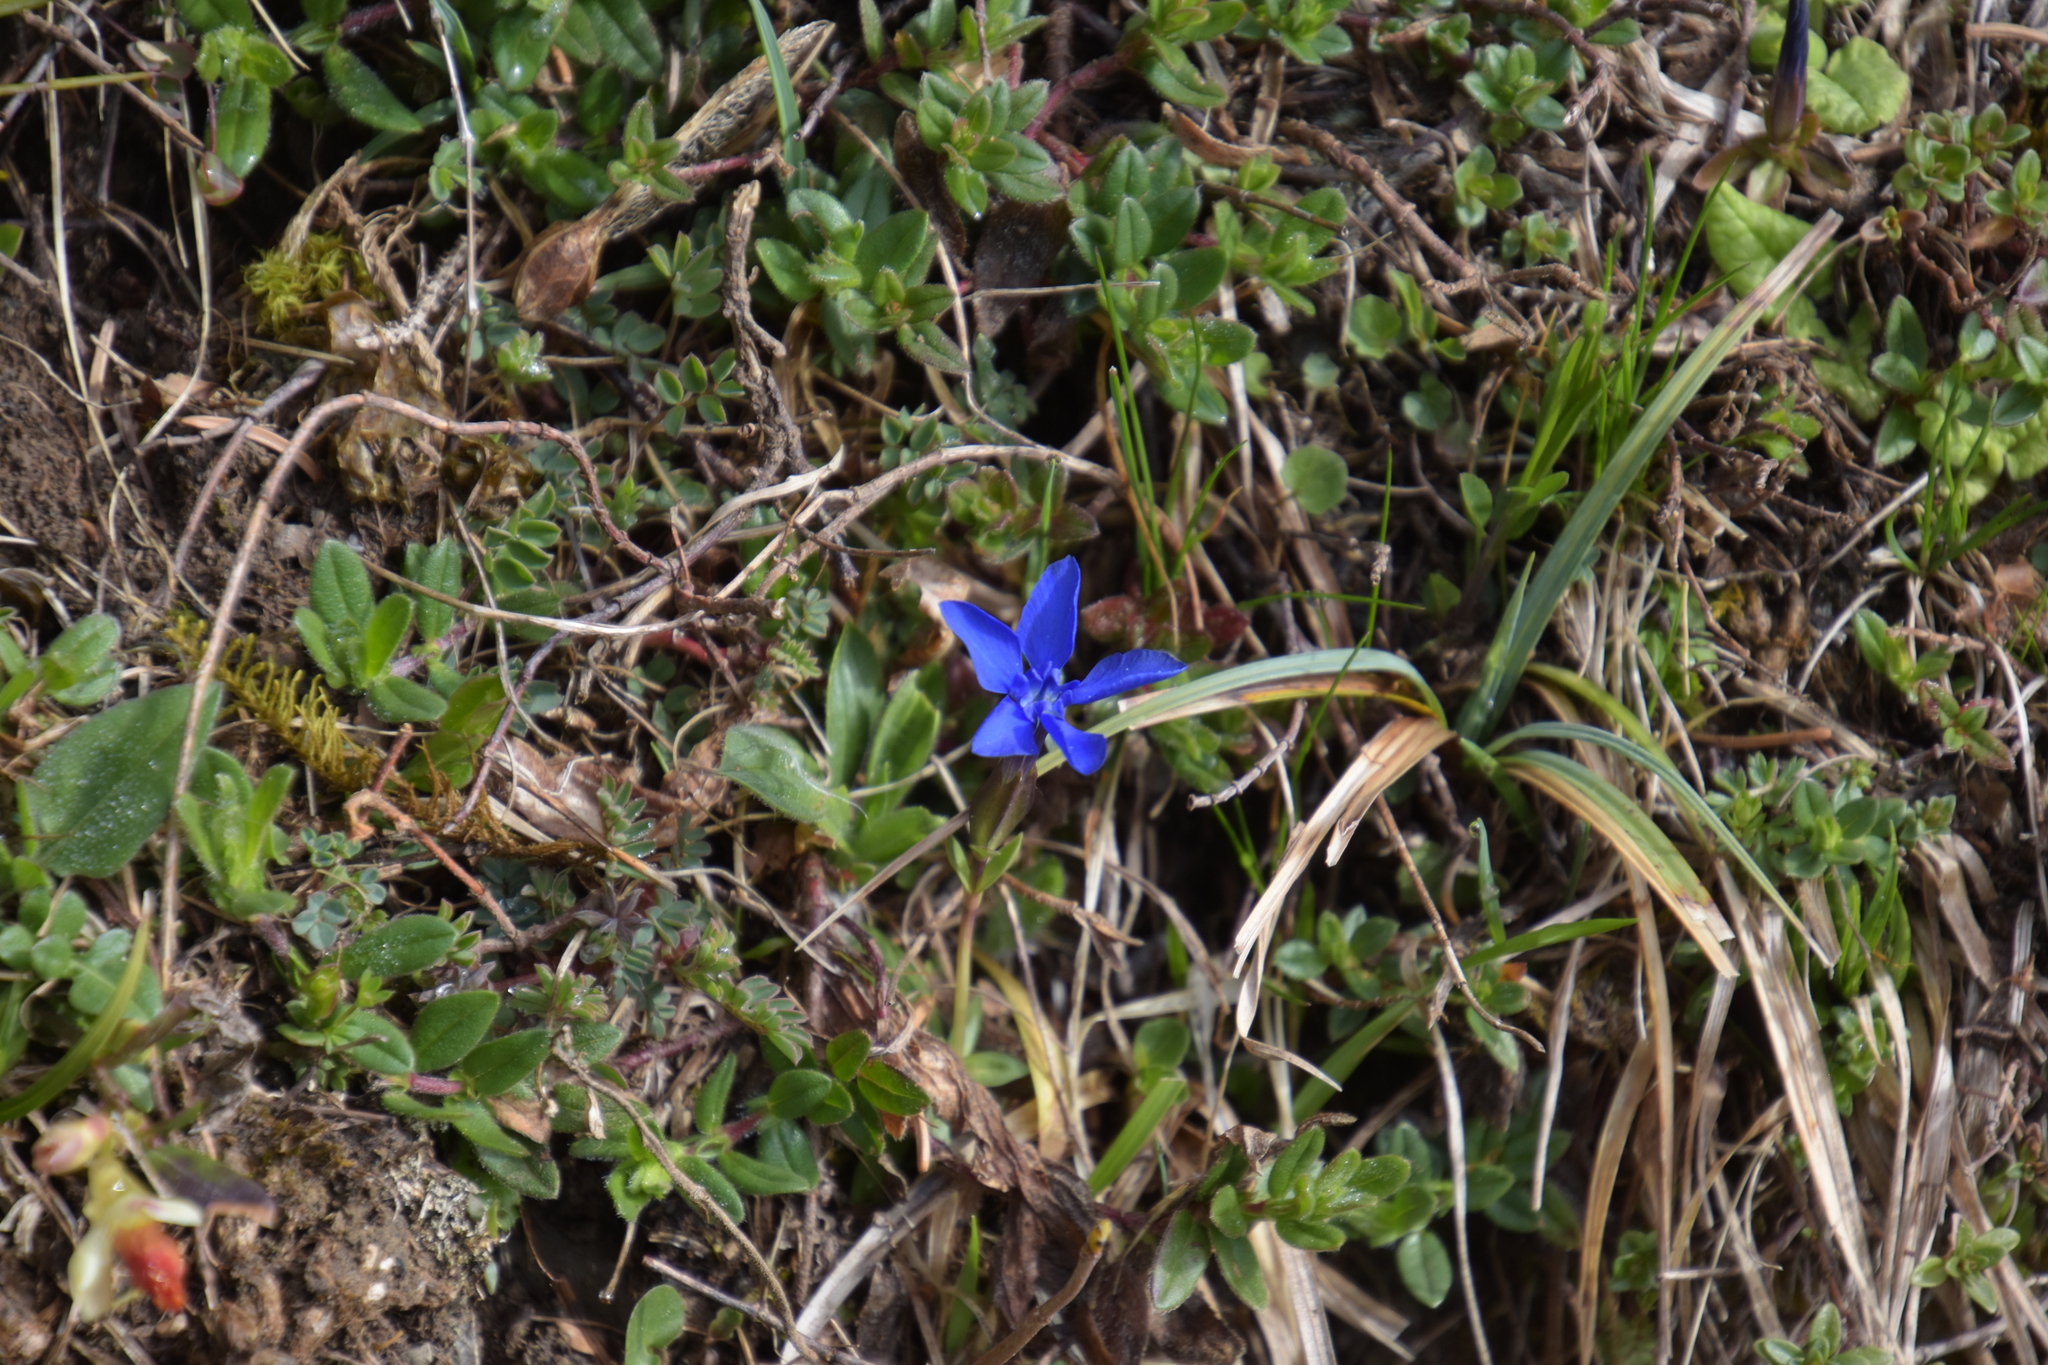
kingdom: Plantae
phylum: Tracheophyta
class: Magnoliopsida
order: Gentianales
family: Gentianaceae
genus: Gentiana
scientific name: Gentiana verna
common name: Spring gentian
